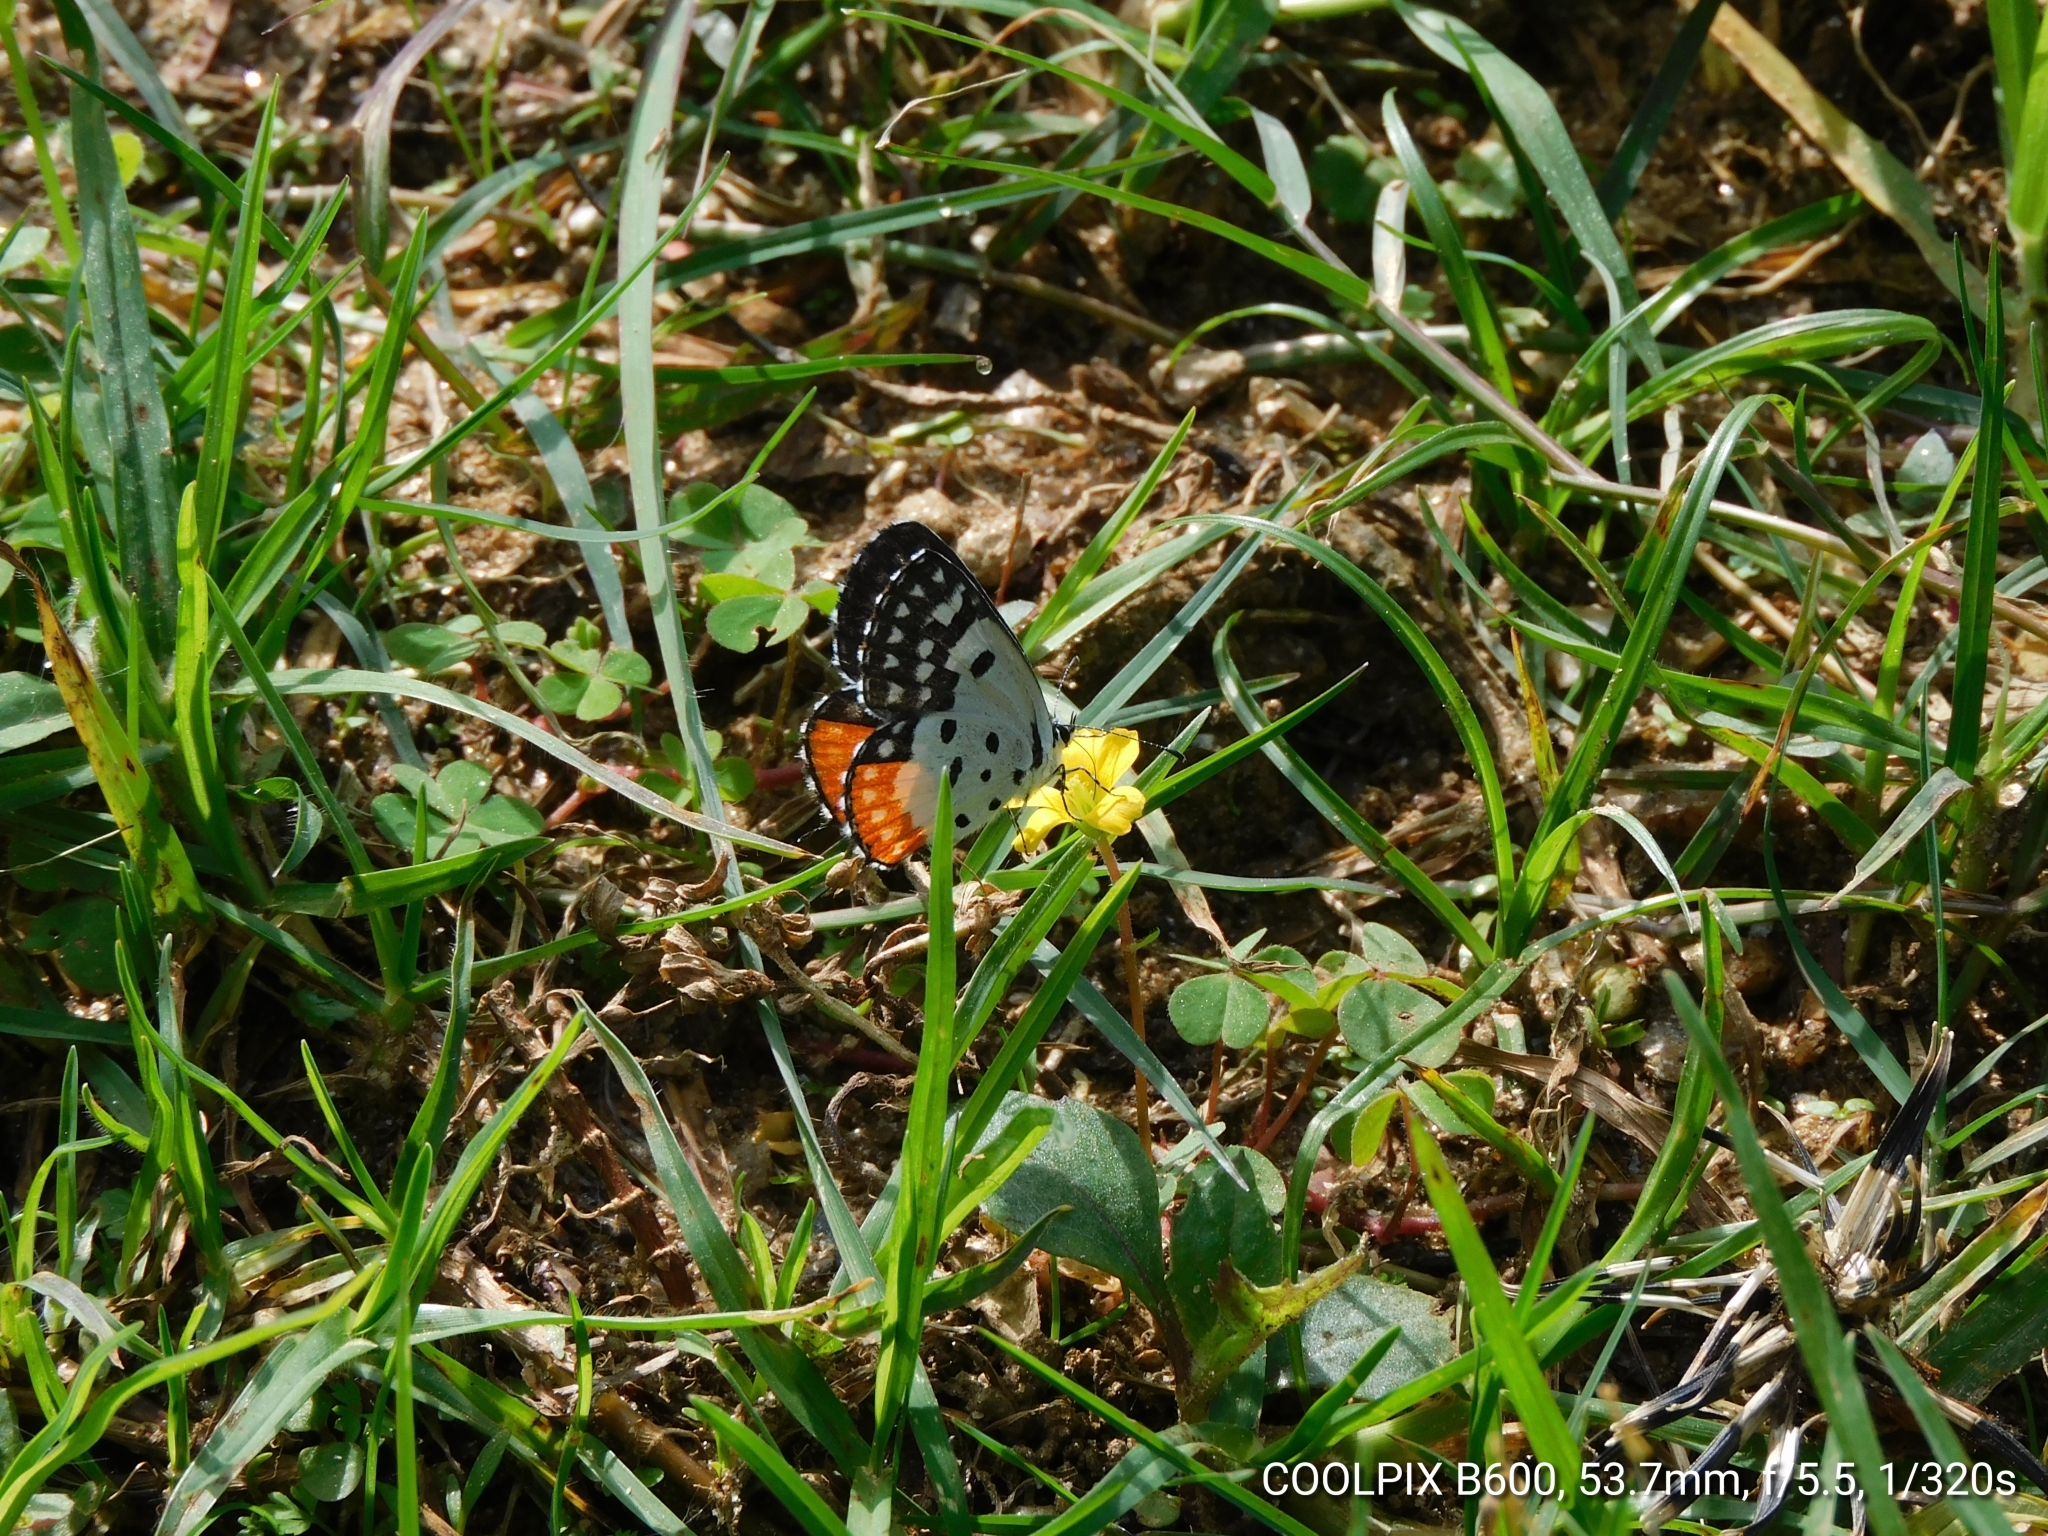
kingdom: Animalia
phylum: Arthropoda
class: Insecta
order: Lepidoptera
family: Lycaenidae
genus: Talicada
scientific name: Talicada nyseus
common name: Red pierrot
